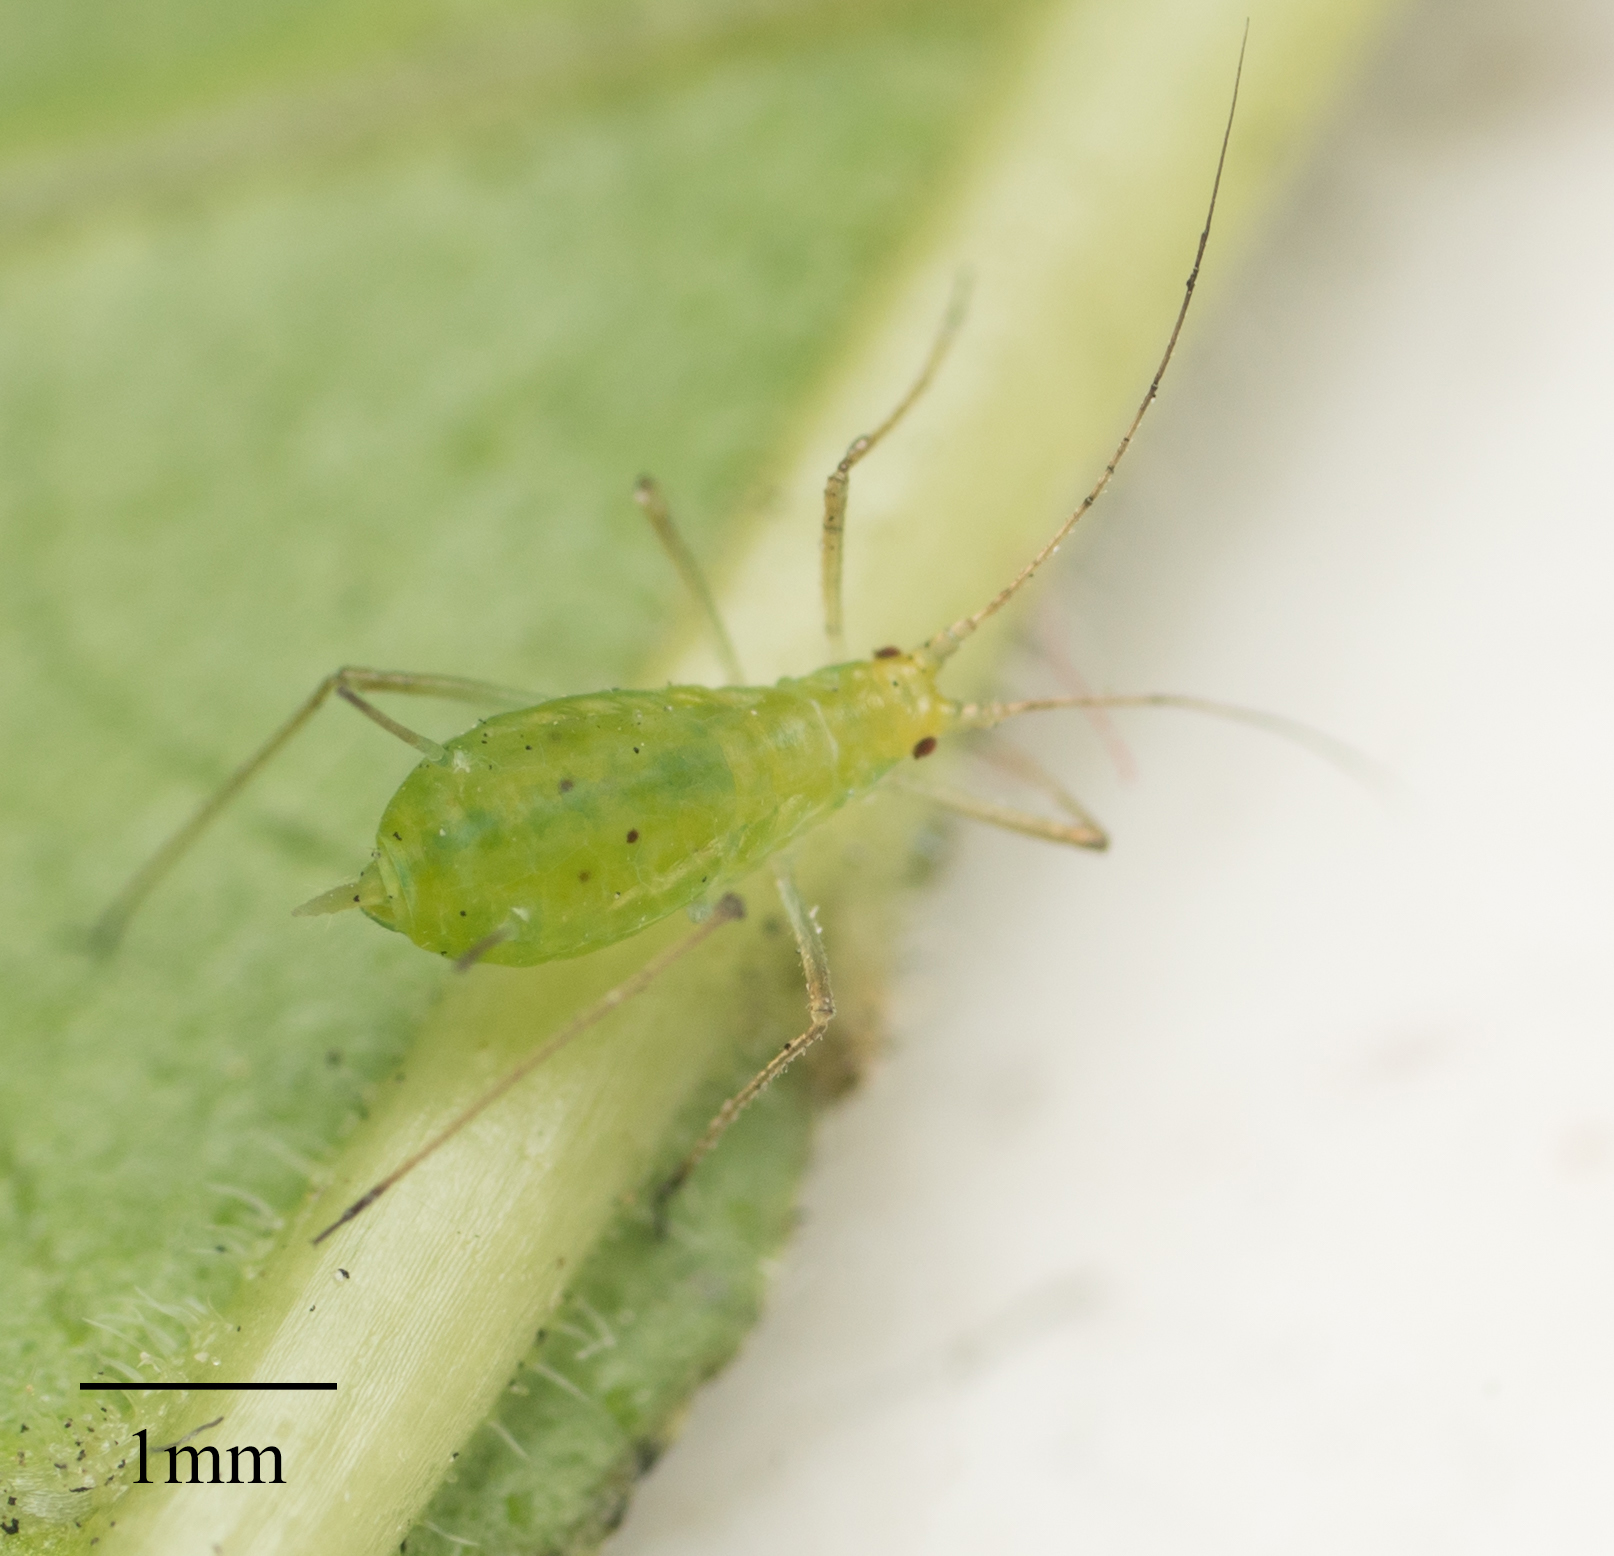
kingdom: Animalia
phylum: Arthropoda
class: Insecta
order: Hemiptera
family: Aphididae
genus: Macrosiphum
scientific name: Macrosiphum euphorbiae
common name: Potato aphid
